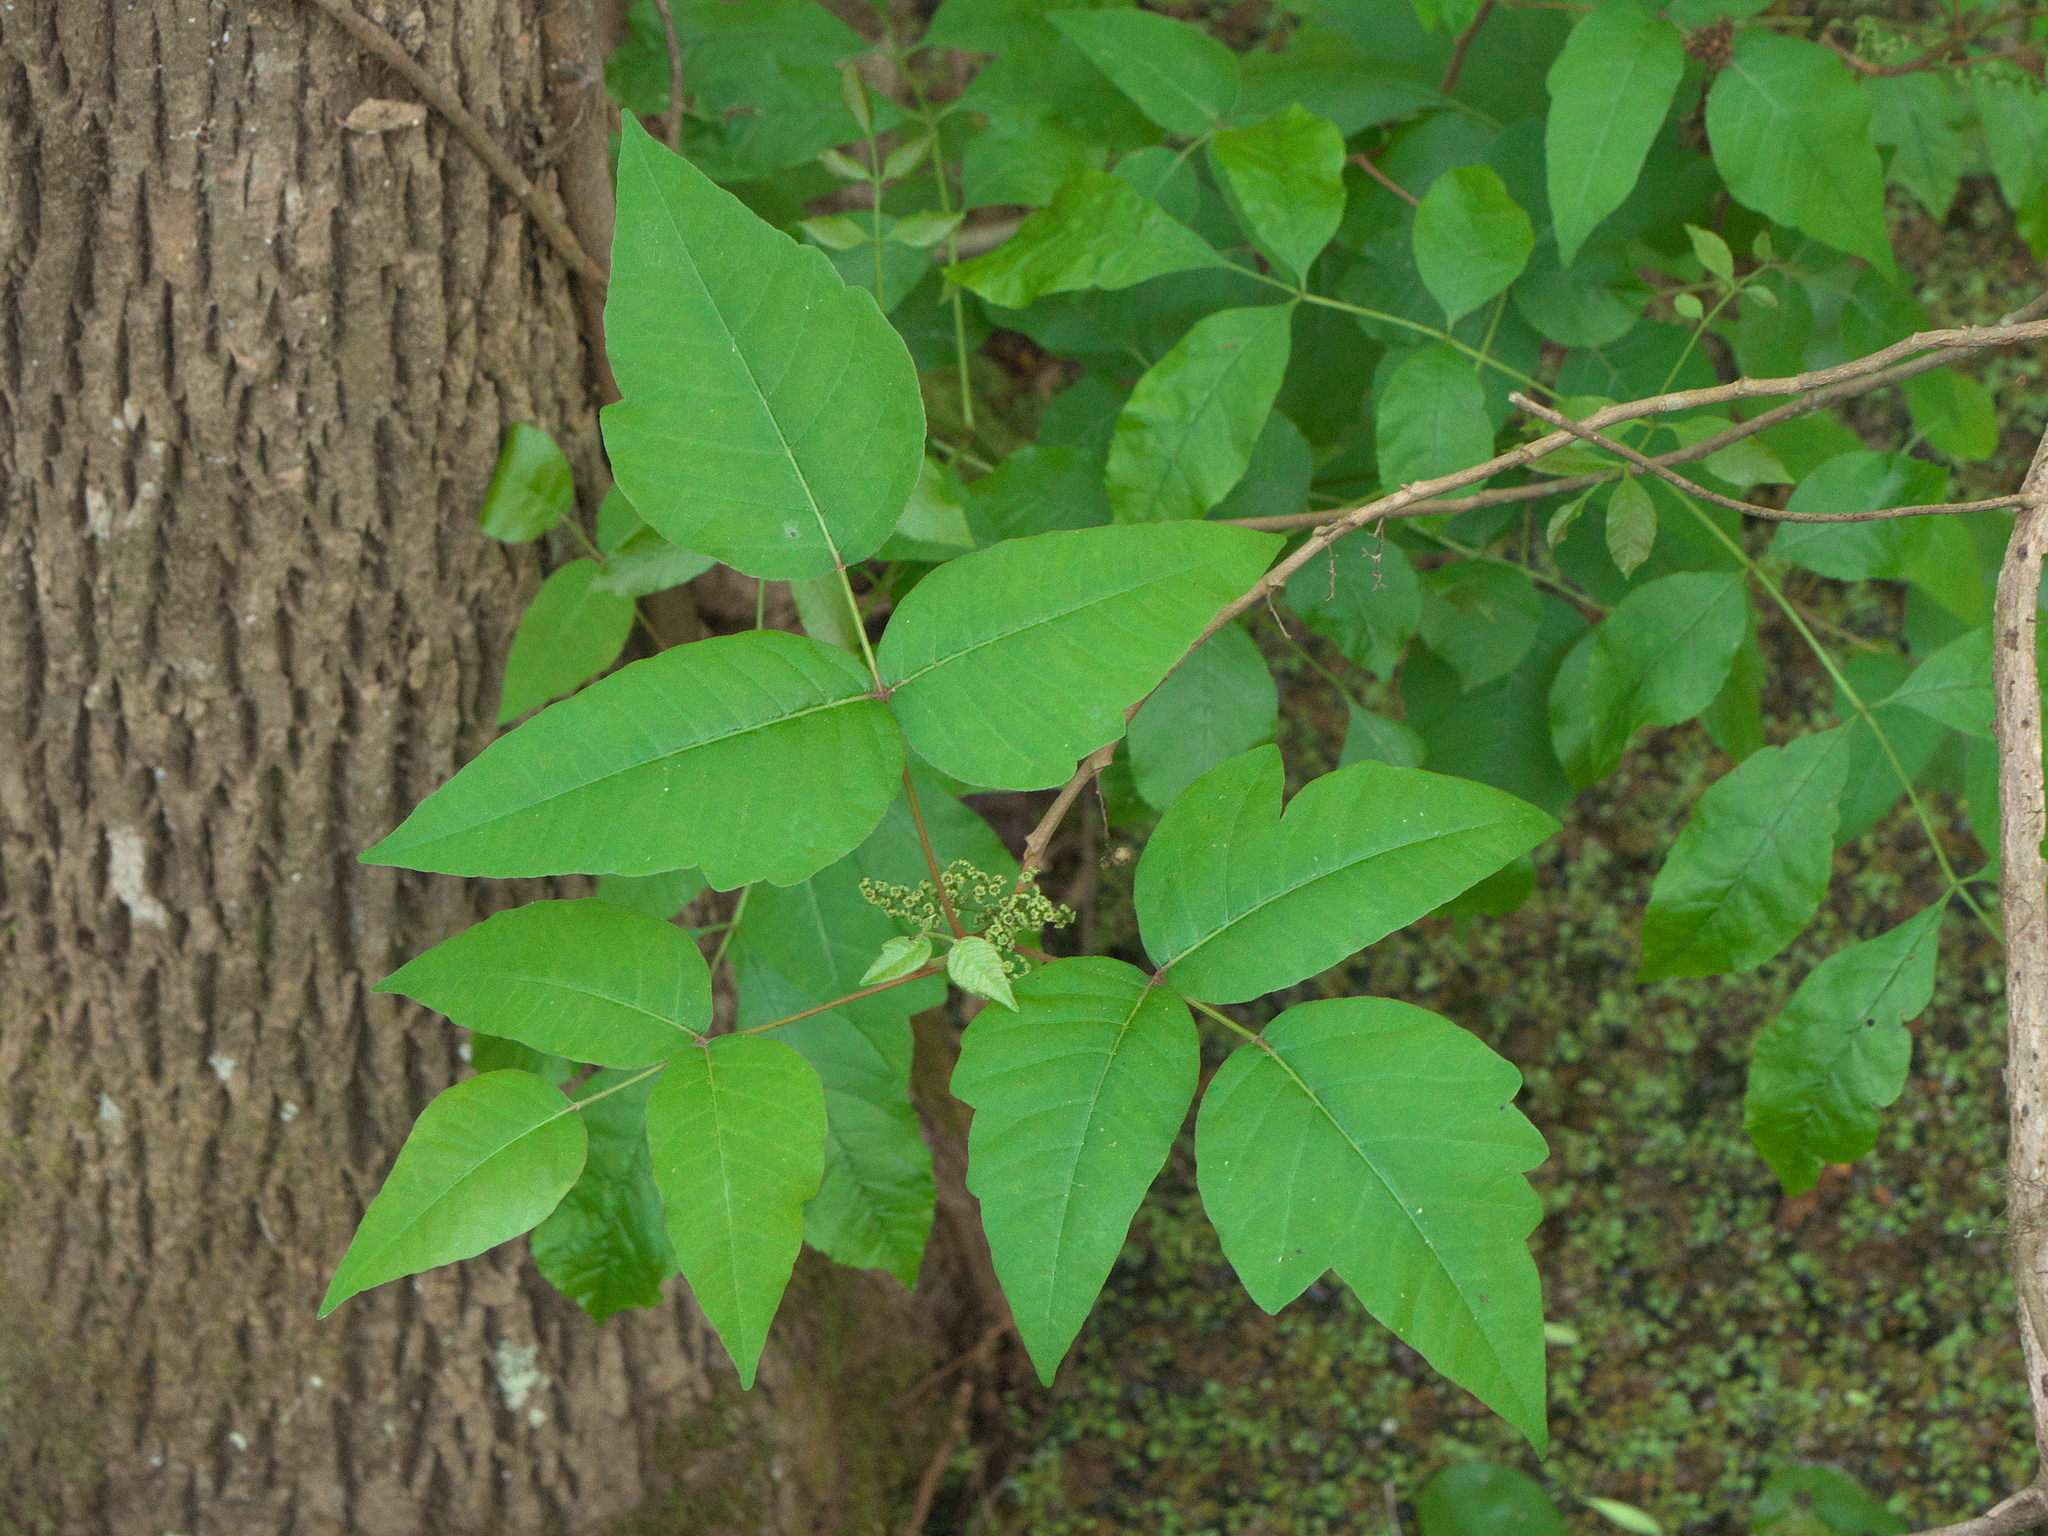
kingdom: Plantae
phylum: Tracheophyta
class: Magnoliopsida
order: Sapindales
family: Anacardiaceae
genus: Toxicodendron
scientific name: Toxicodendron radicans
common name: Poison ivy
